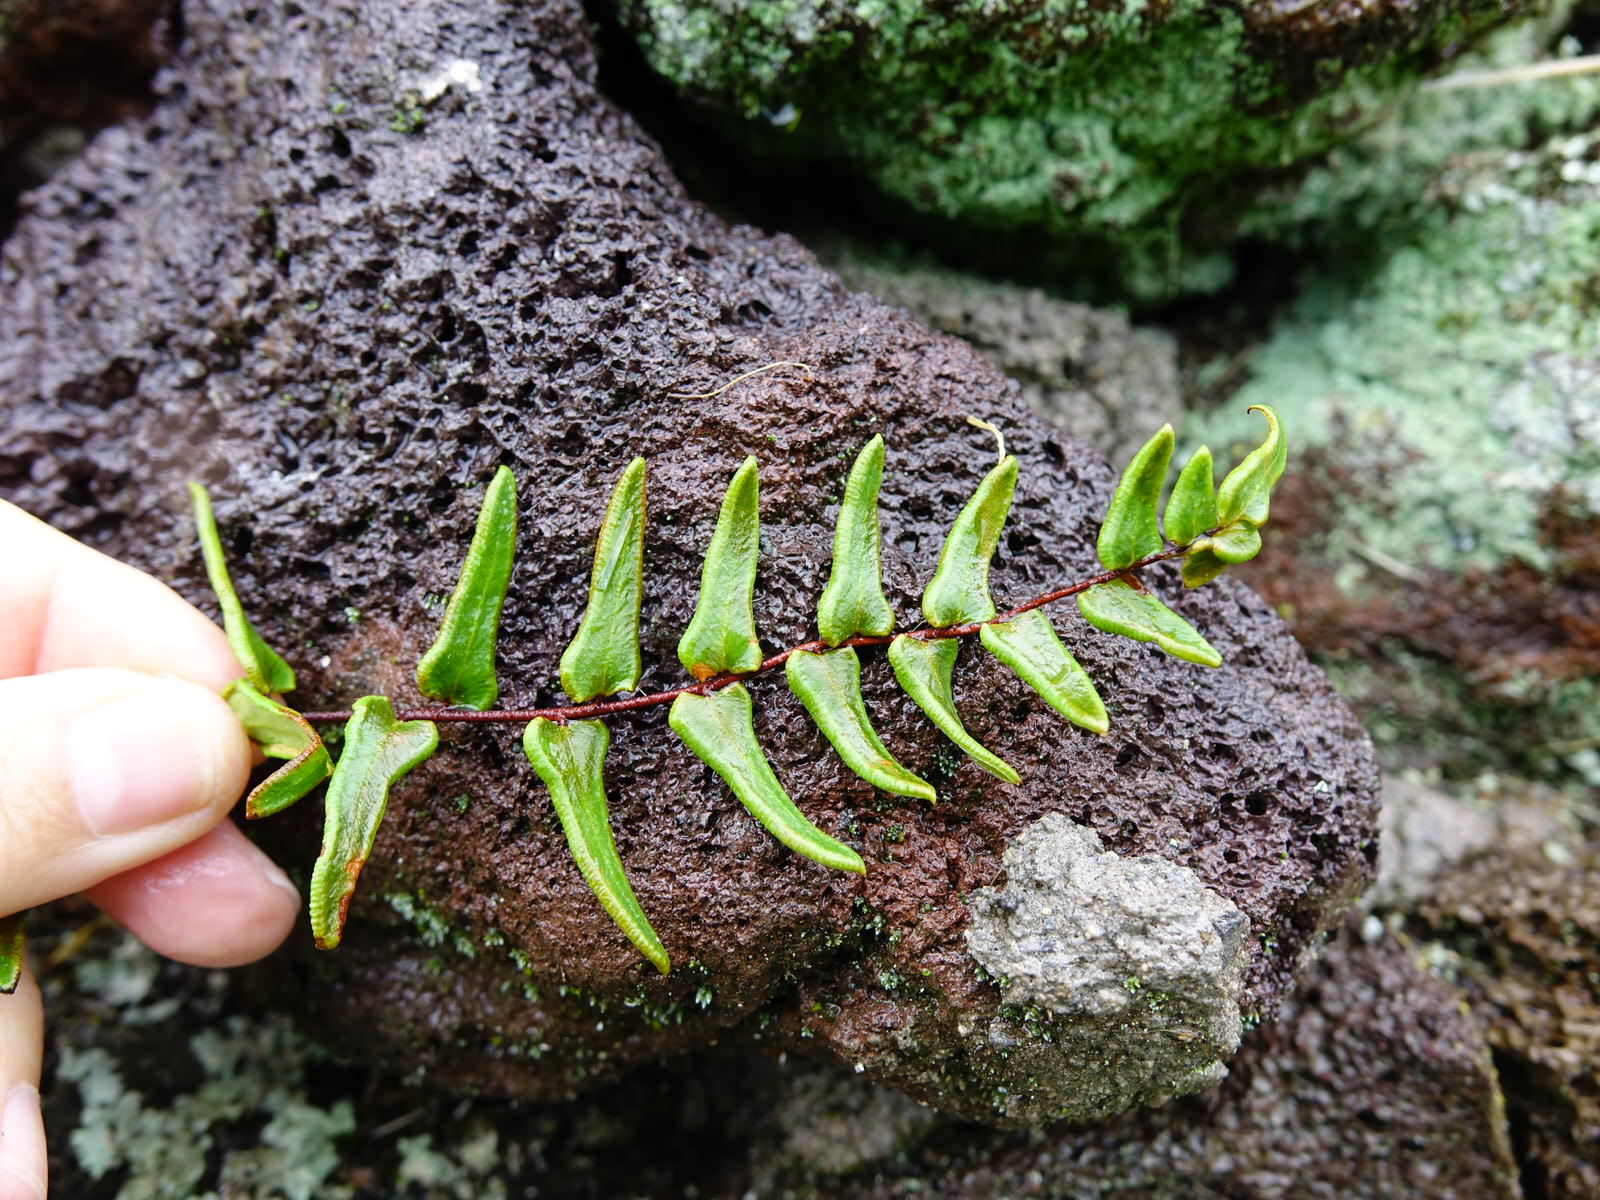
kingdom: Plantae
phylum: Tracheophyta
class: Polypodiopsida
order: Polypodiales
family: Pteridaceae
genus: Pellaea
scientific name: Pellaea calidirupium
